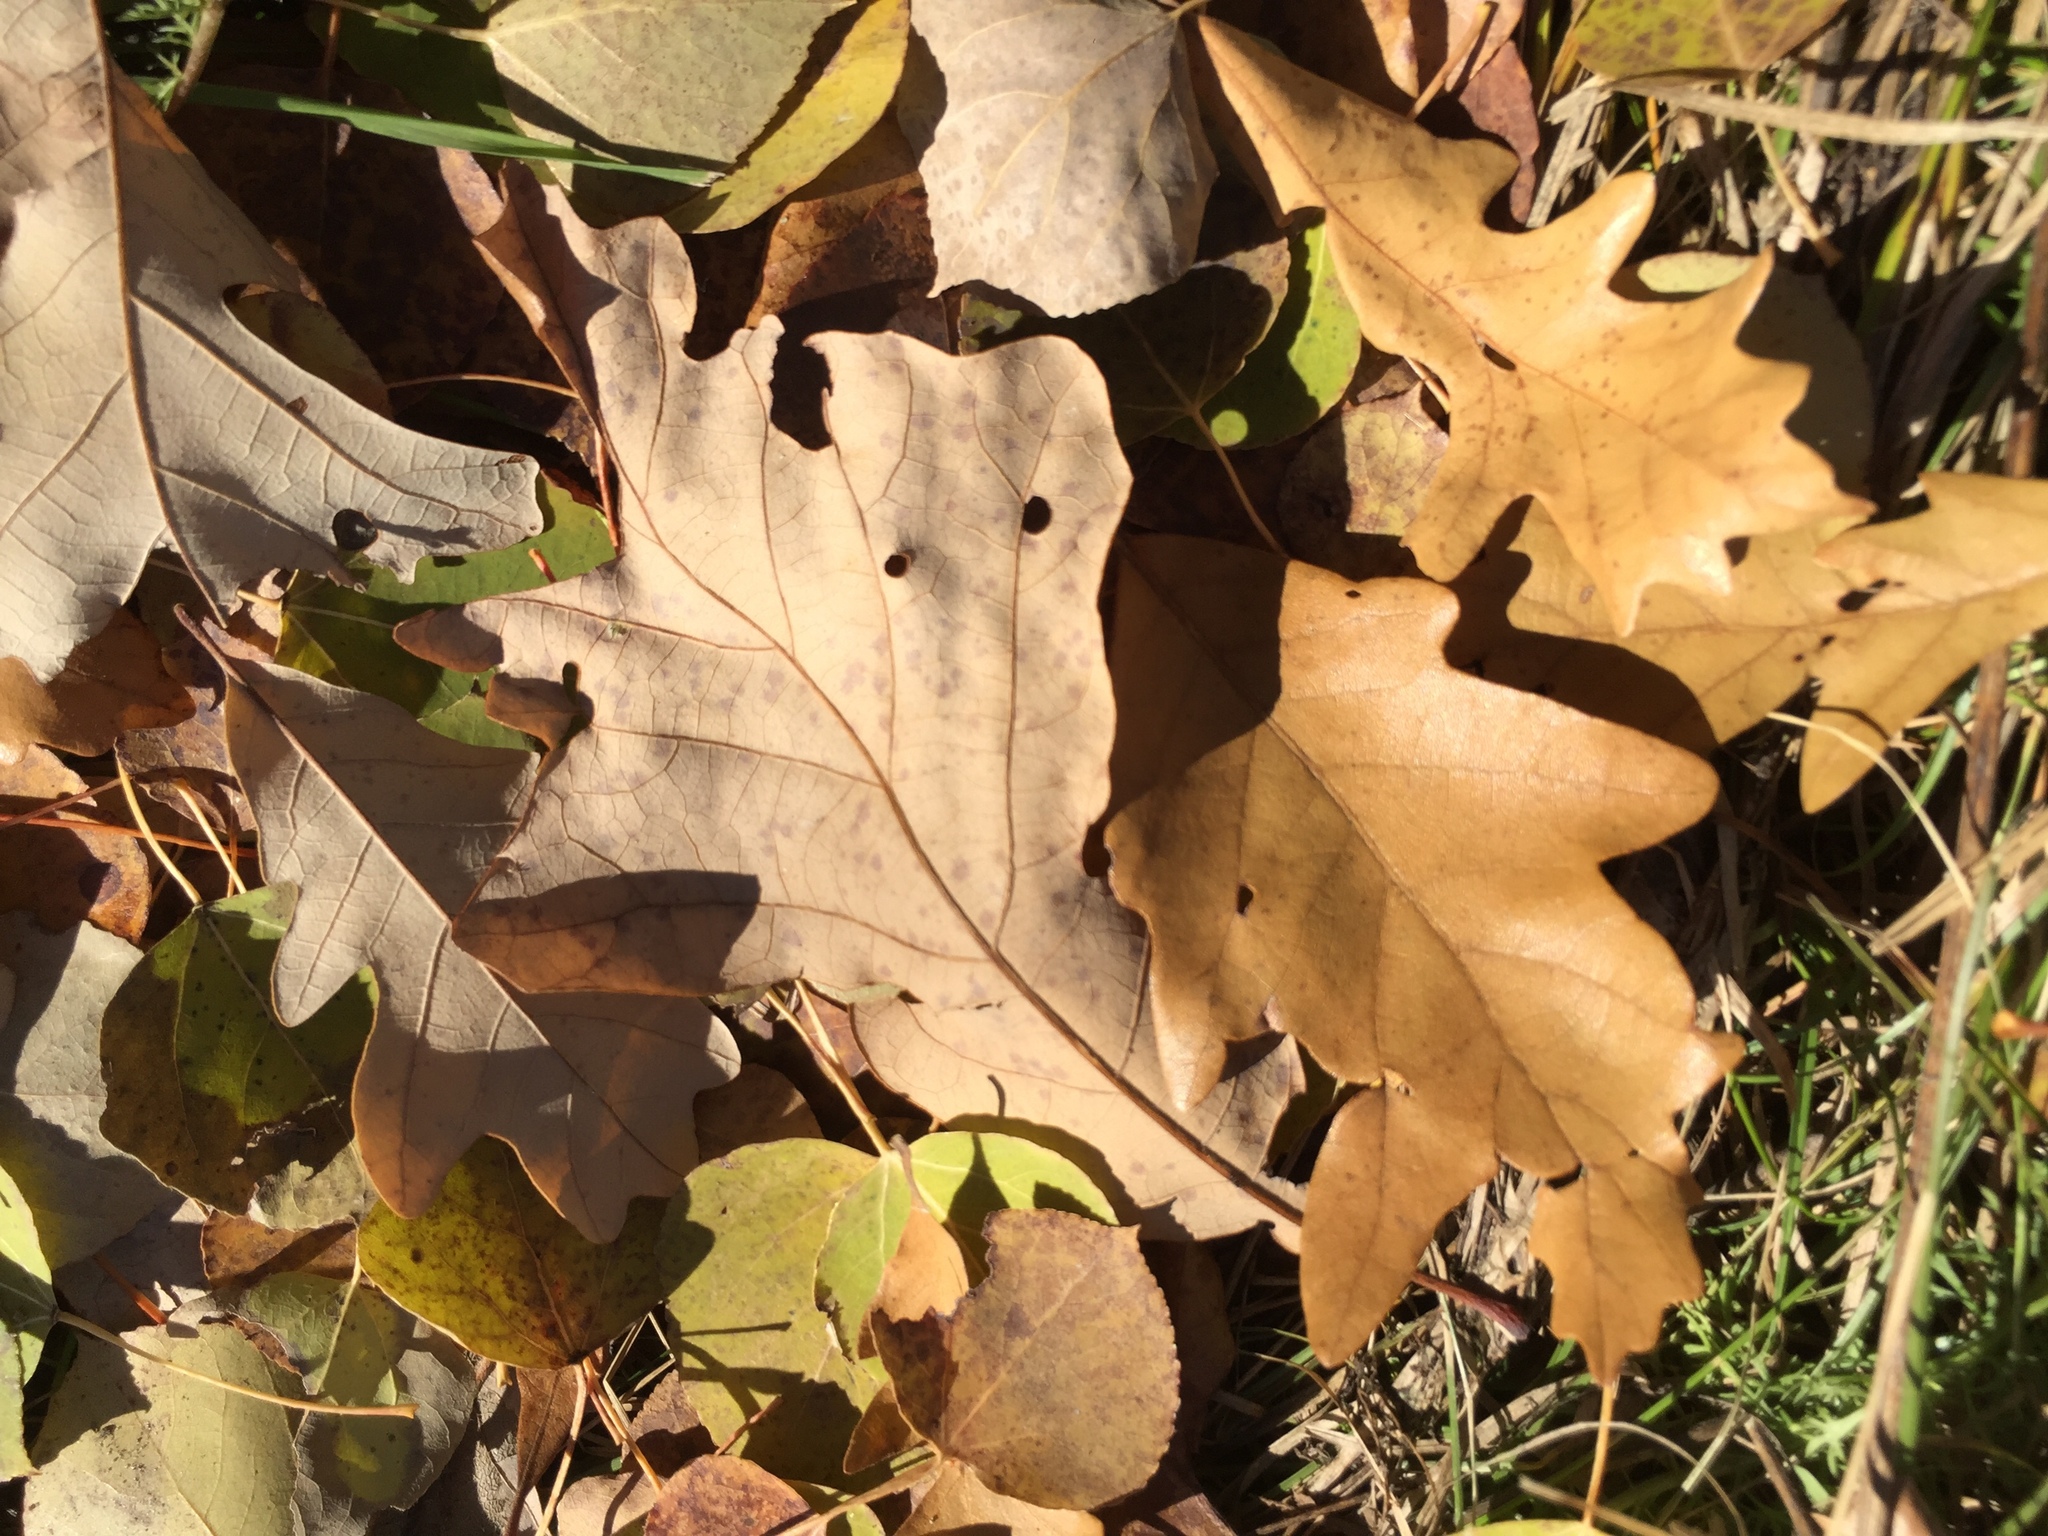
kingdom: Plantae
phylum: Tracheophyta
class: Magnoliopsida
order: Fagales
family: Fagaceae
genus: Quercus
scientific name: Quercus macrocarpa
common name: Bur oak
